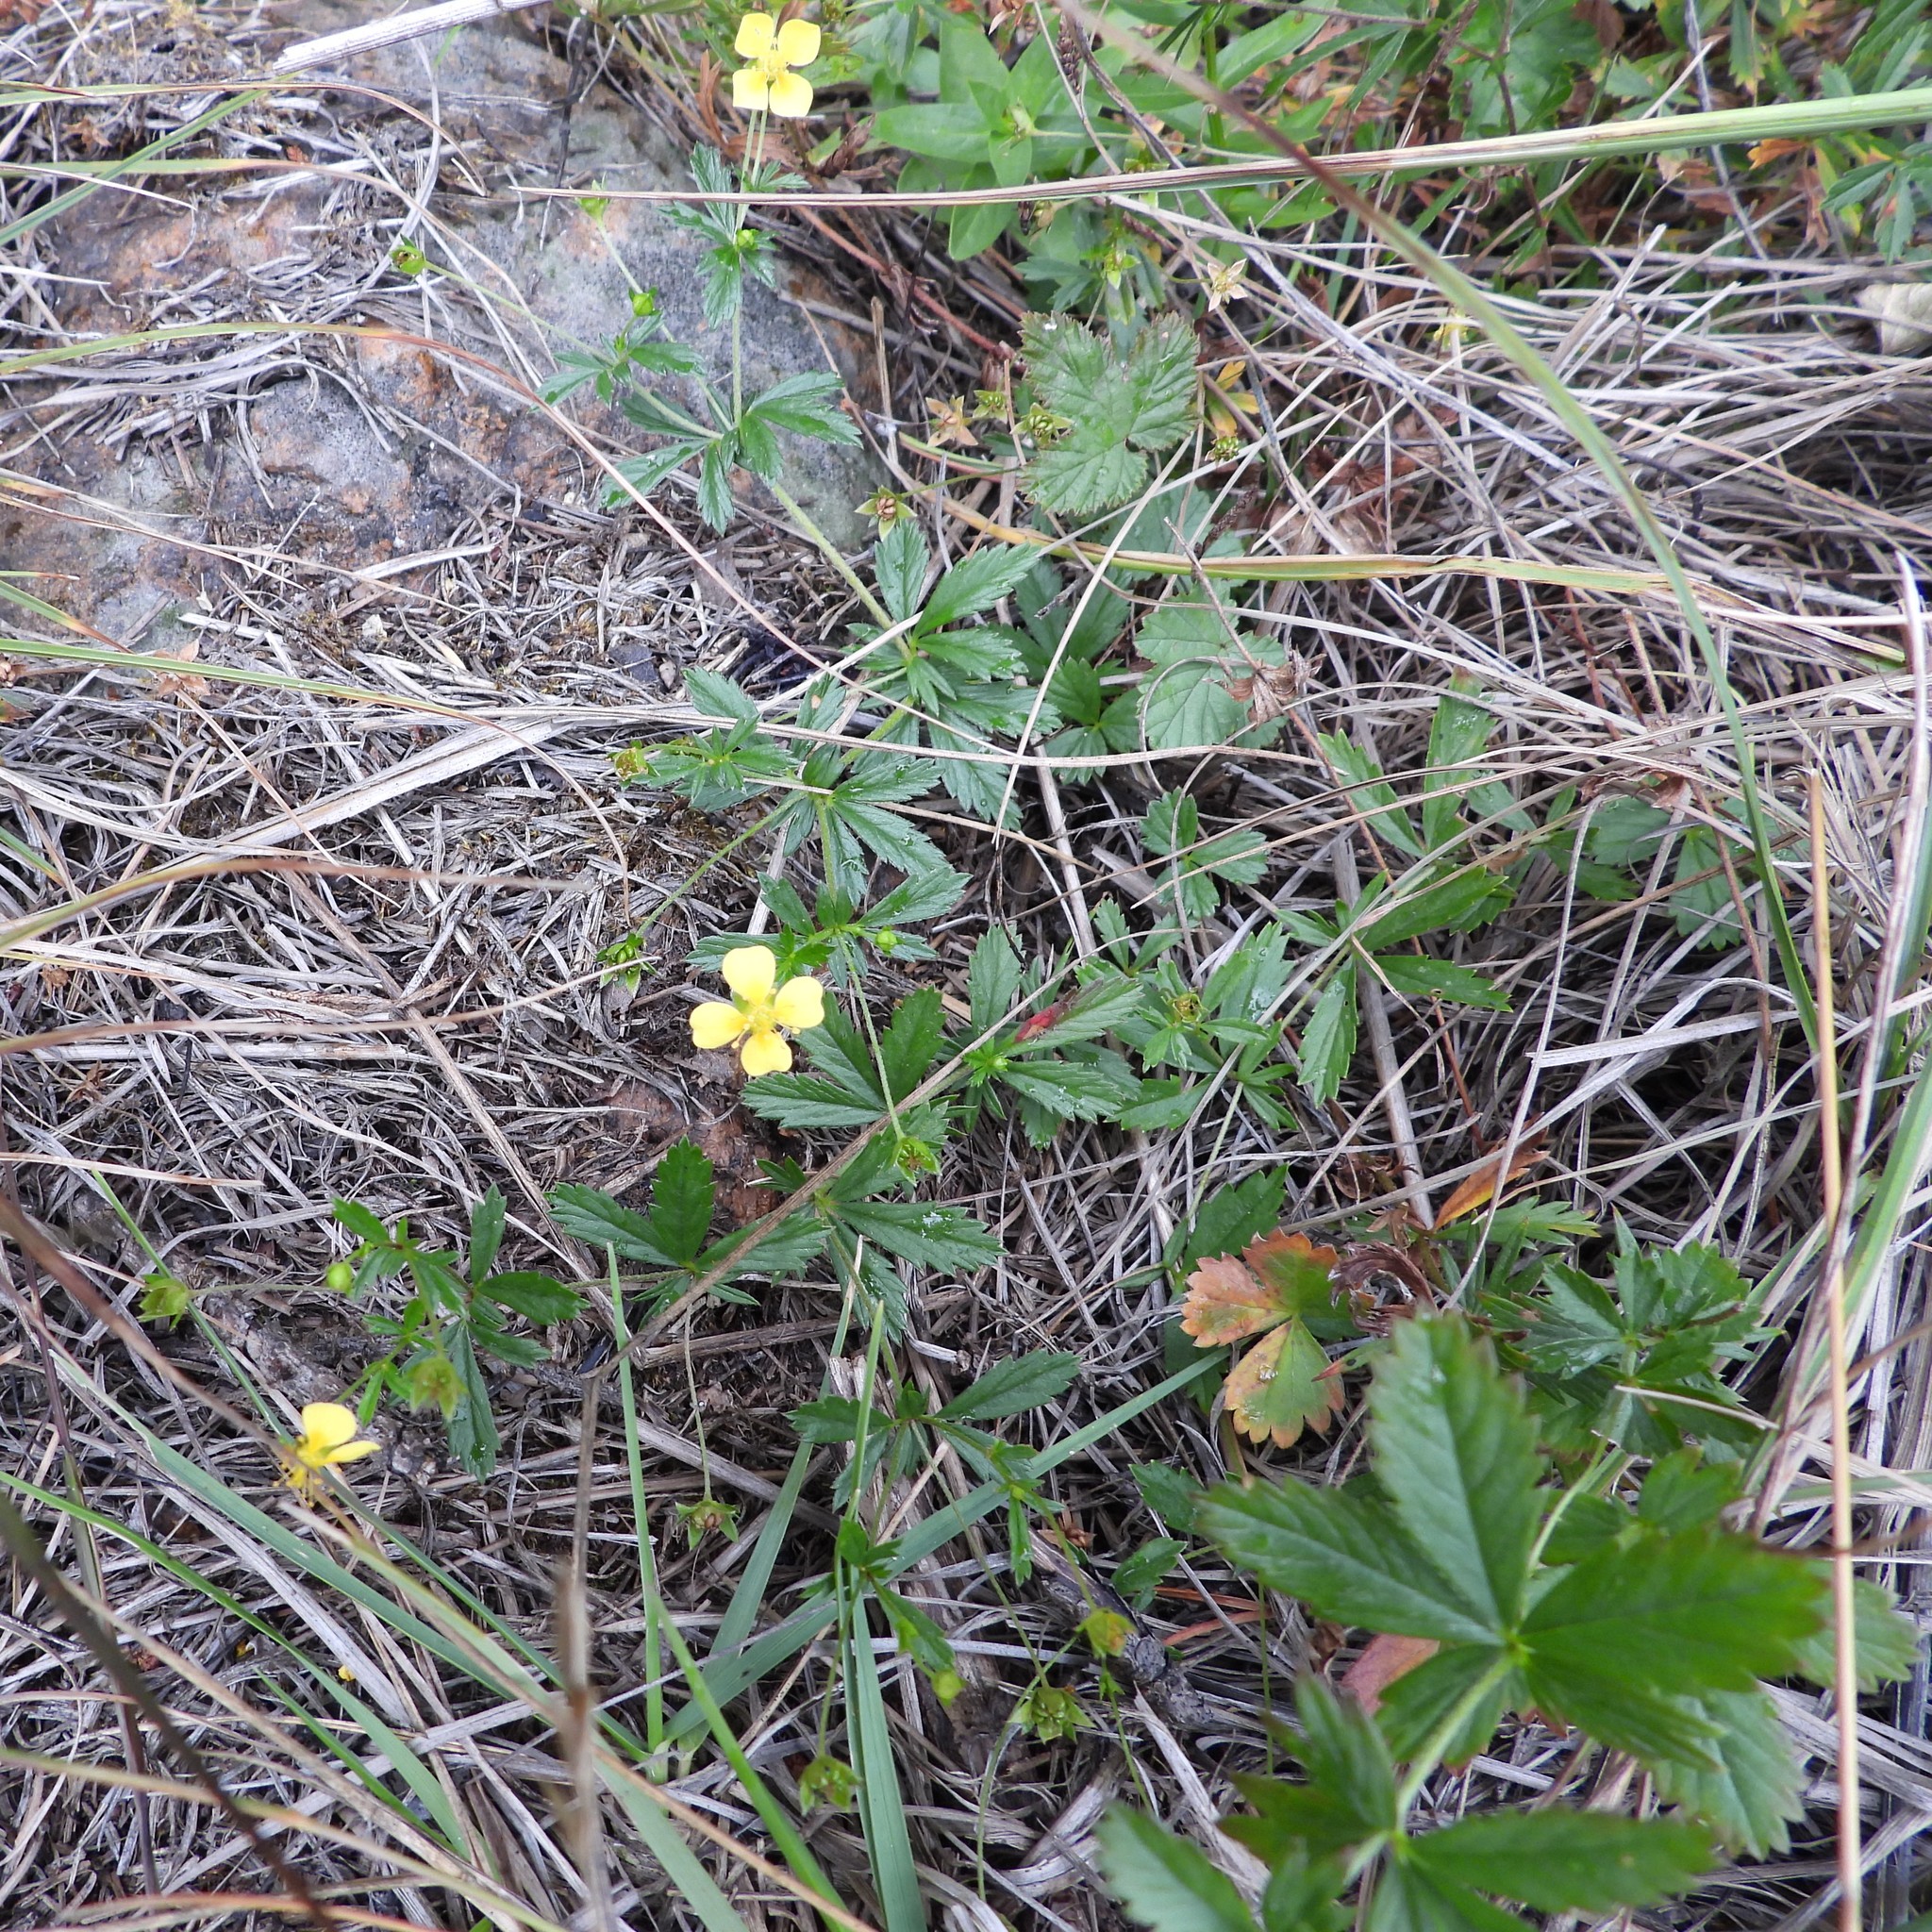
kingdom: Plantae
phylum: Tracheophyta
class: Magnoliopsida
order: Rosales
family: Rosaceae
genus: Potentilla
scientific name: Potentilla erecta
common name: Tormentil
